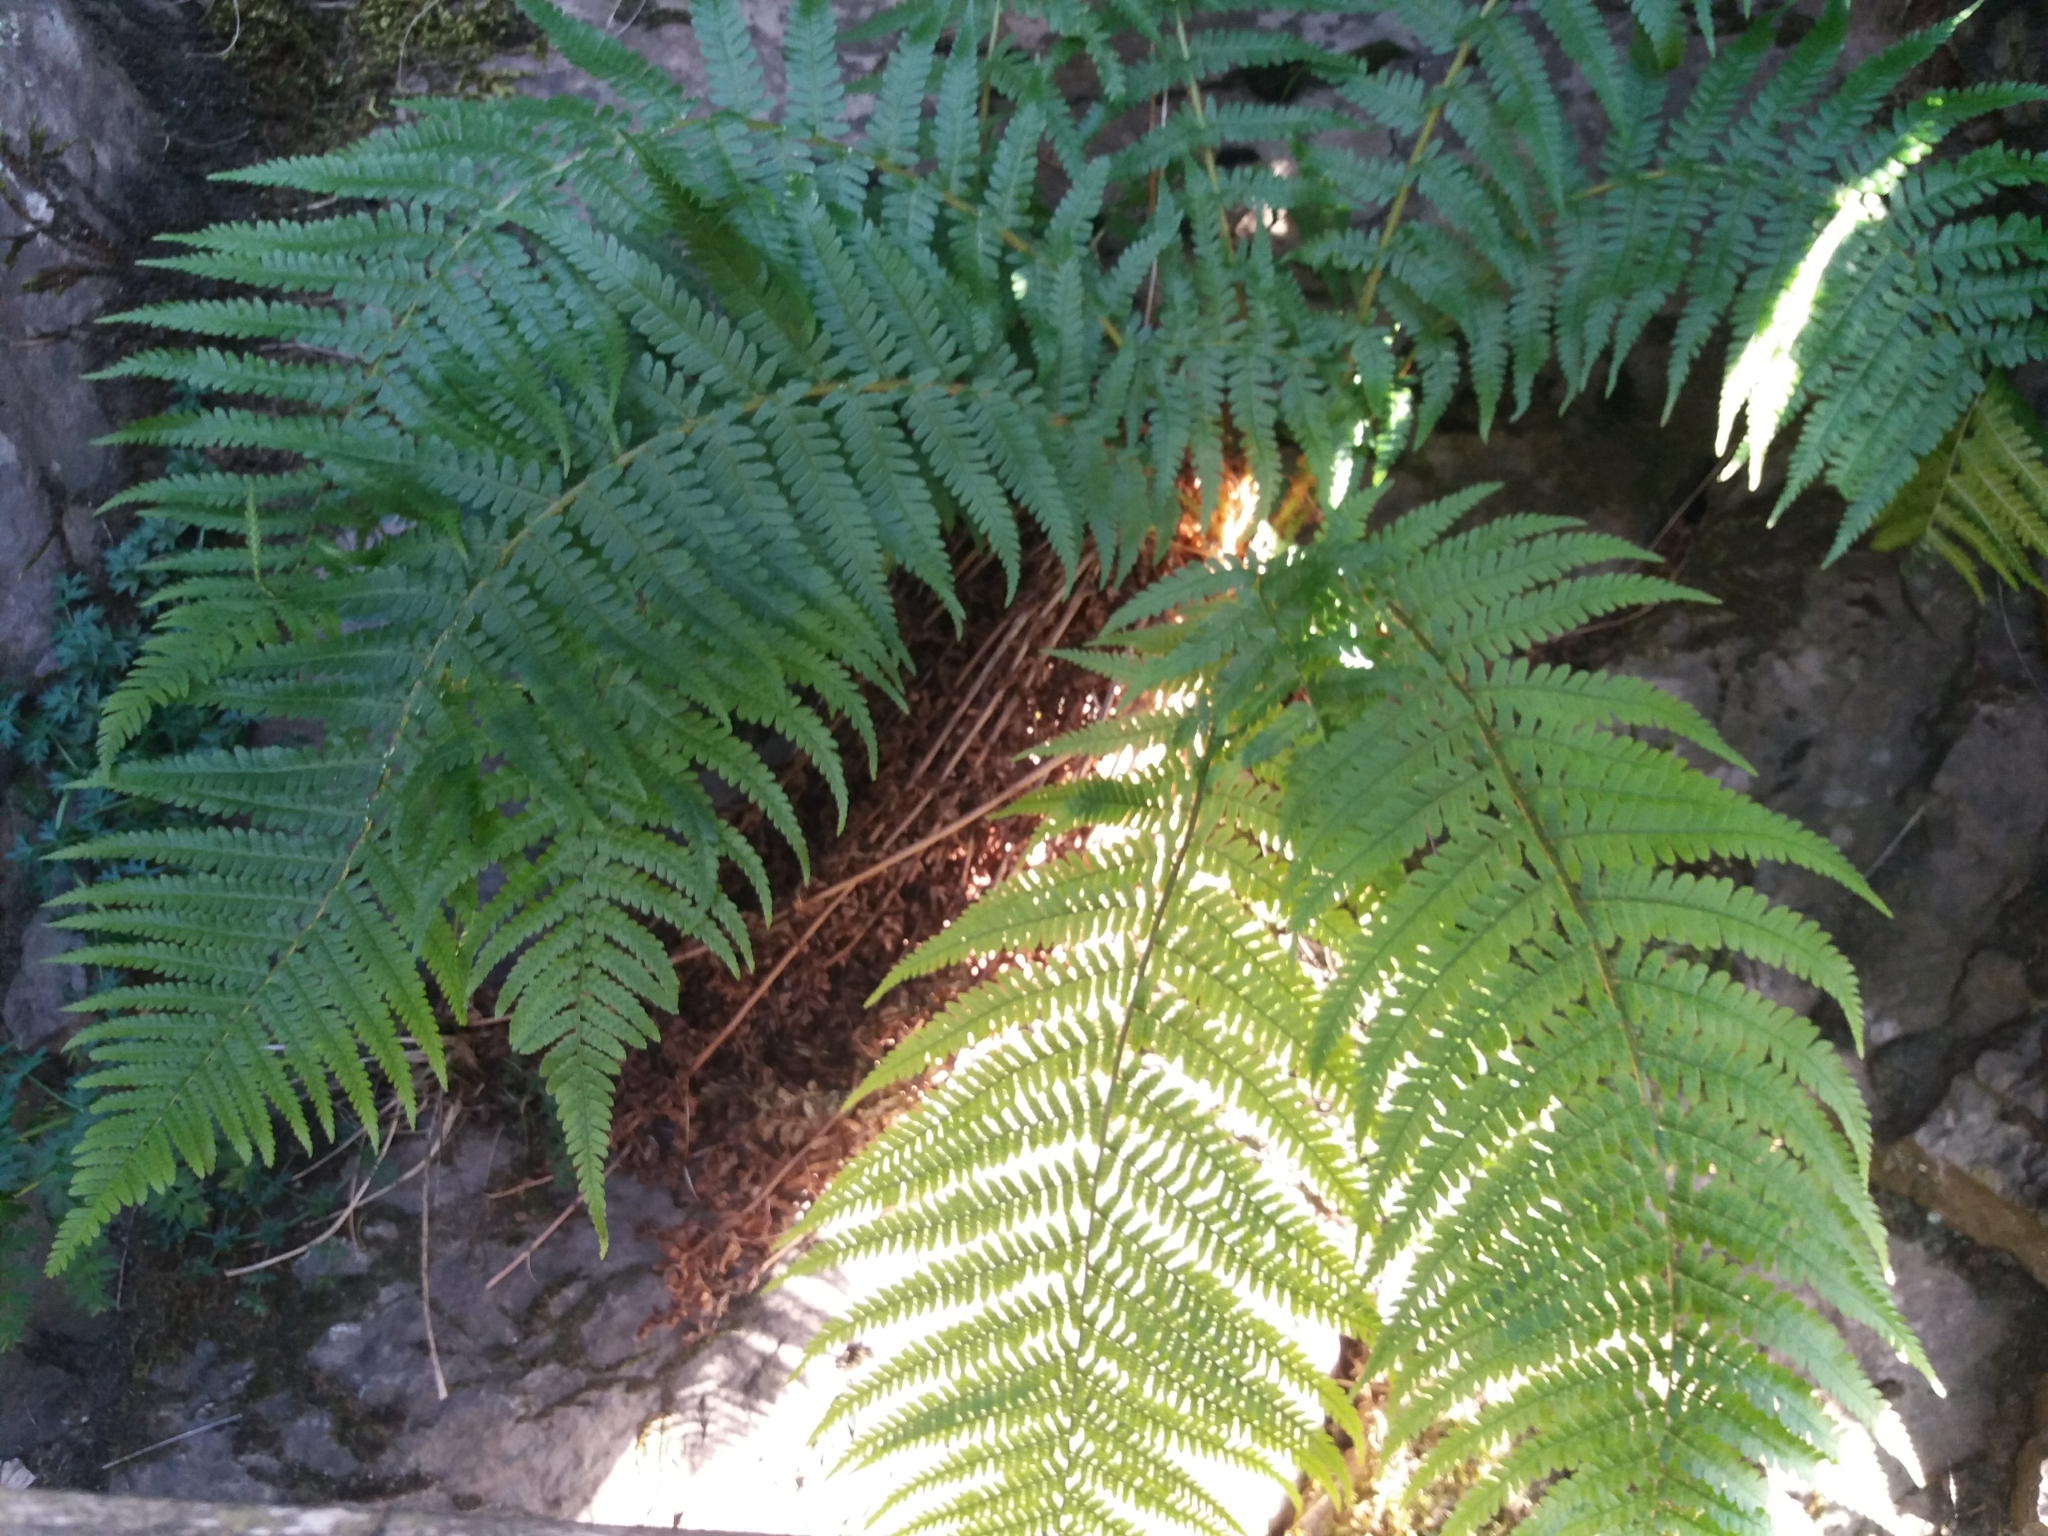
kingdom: Plantae
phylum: Tracheophyta
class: Polypodiopsida
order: Polypodiales
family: Dryopteridaceae
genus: Dryopteris
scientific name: Dryopteris filix-mas
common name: Male fern
